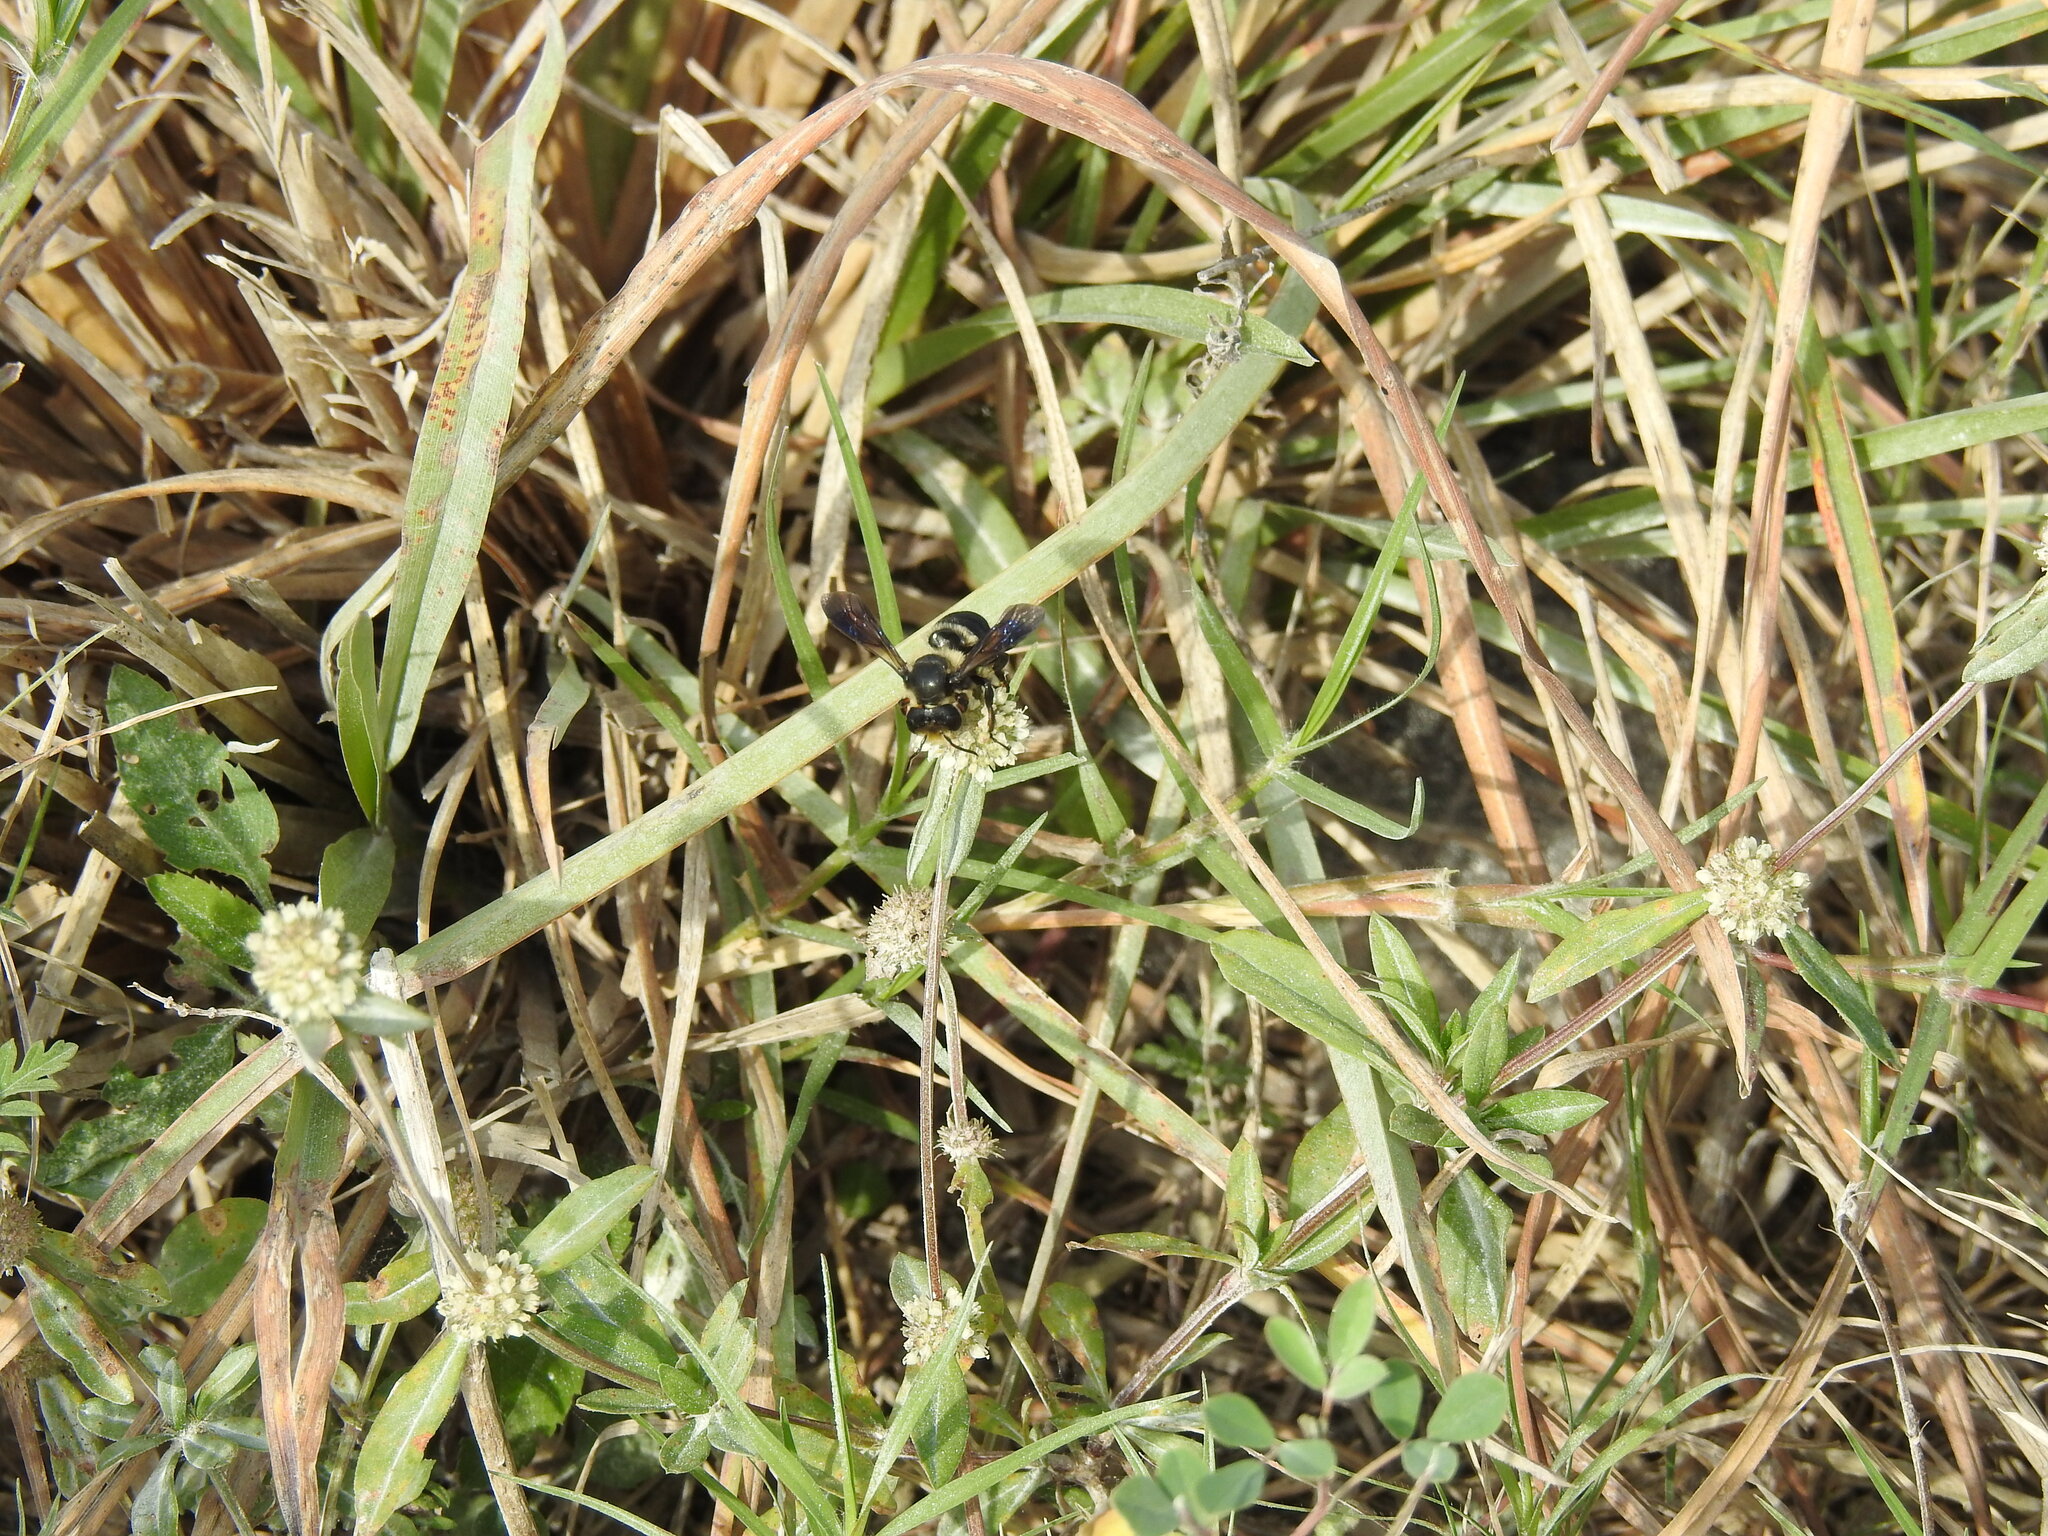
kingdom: Animalia
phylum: Arthropoda
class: Insecta
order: Hymenoptera
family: Megachilidae
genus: Megachile
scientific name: Megachile xylocopoides
